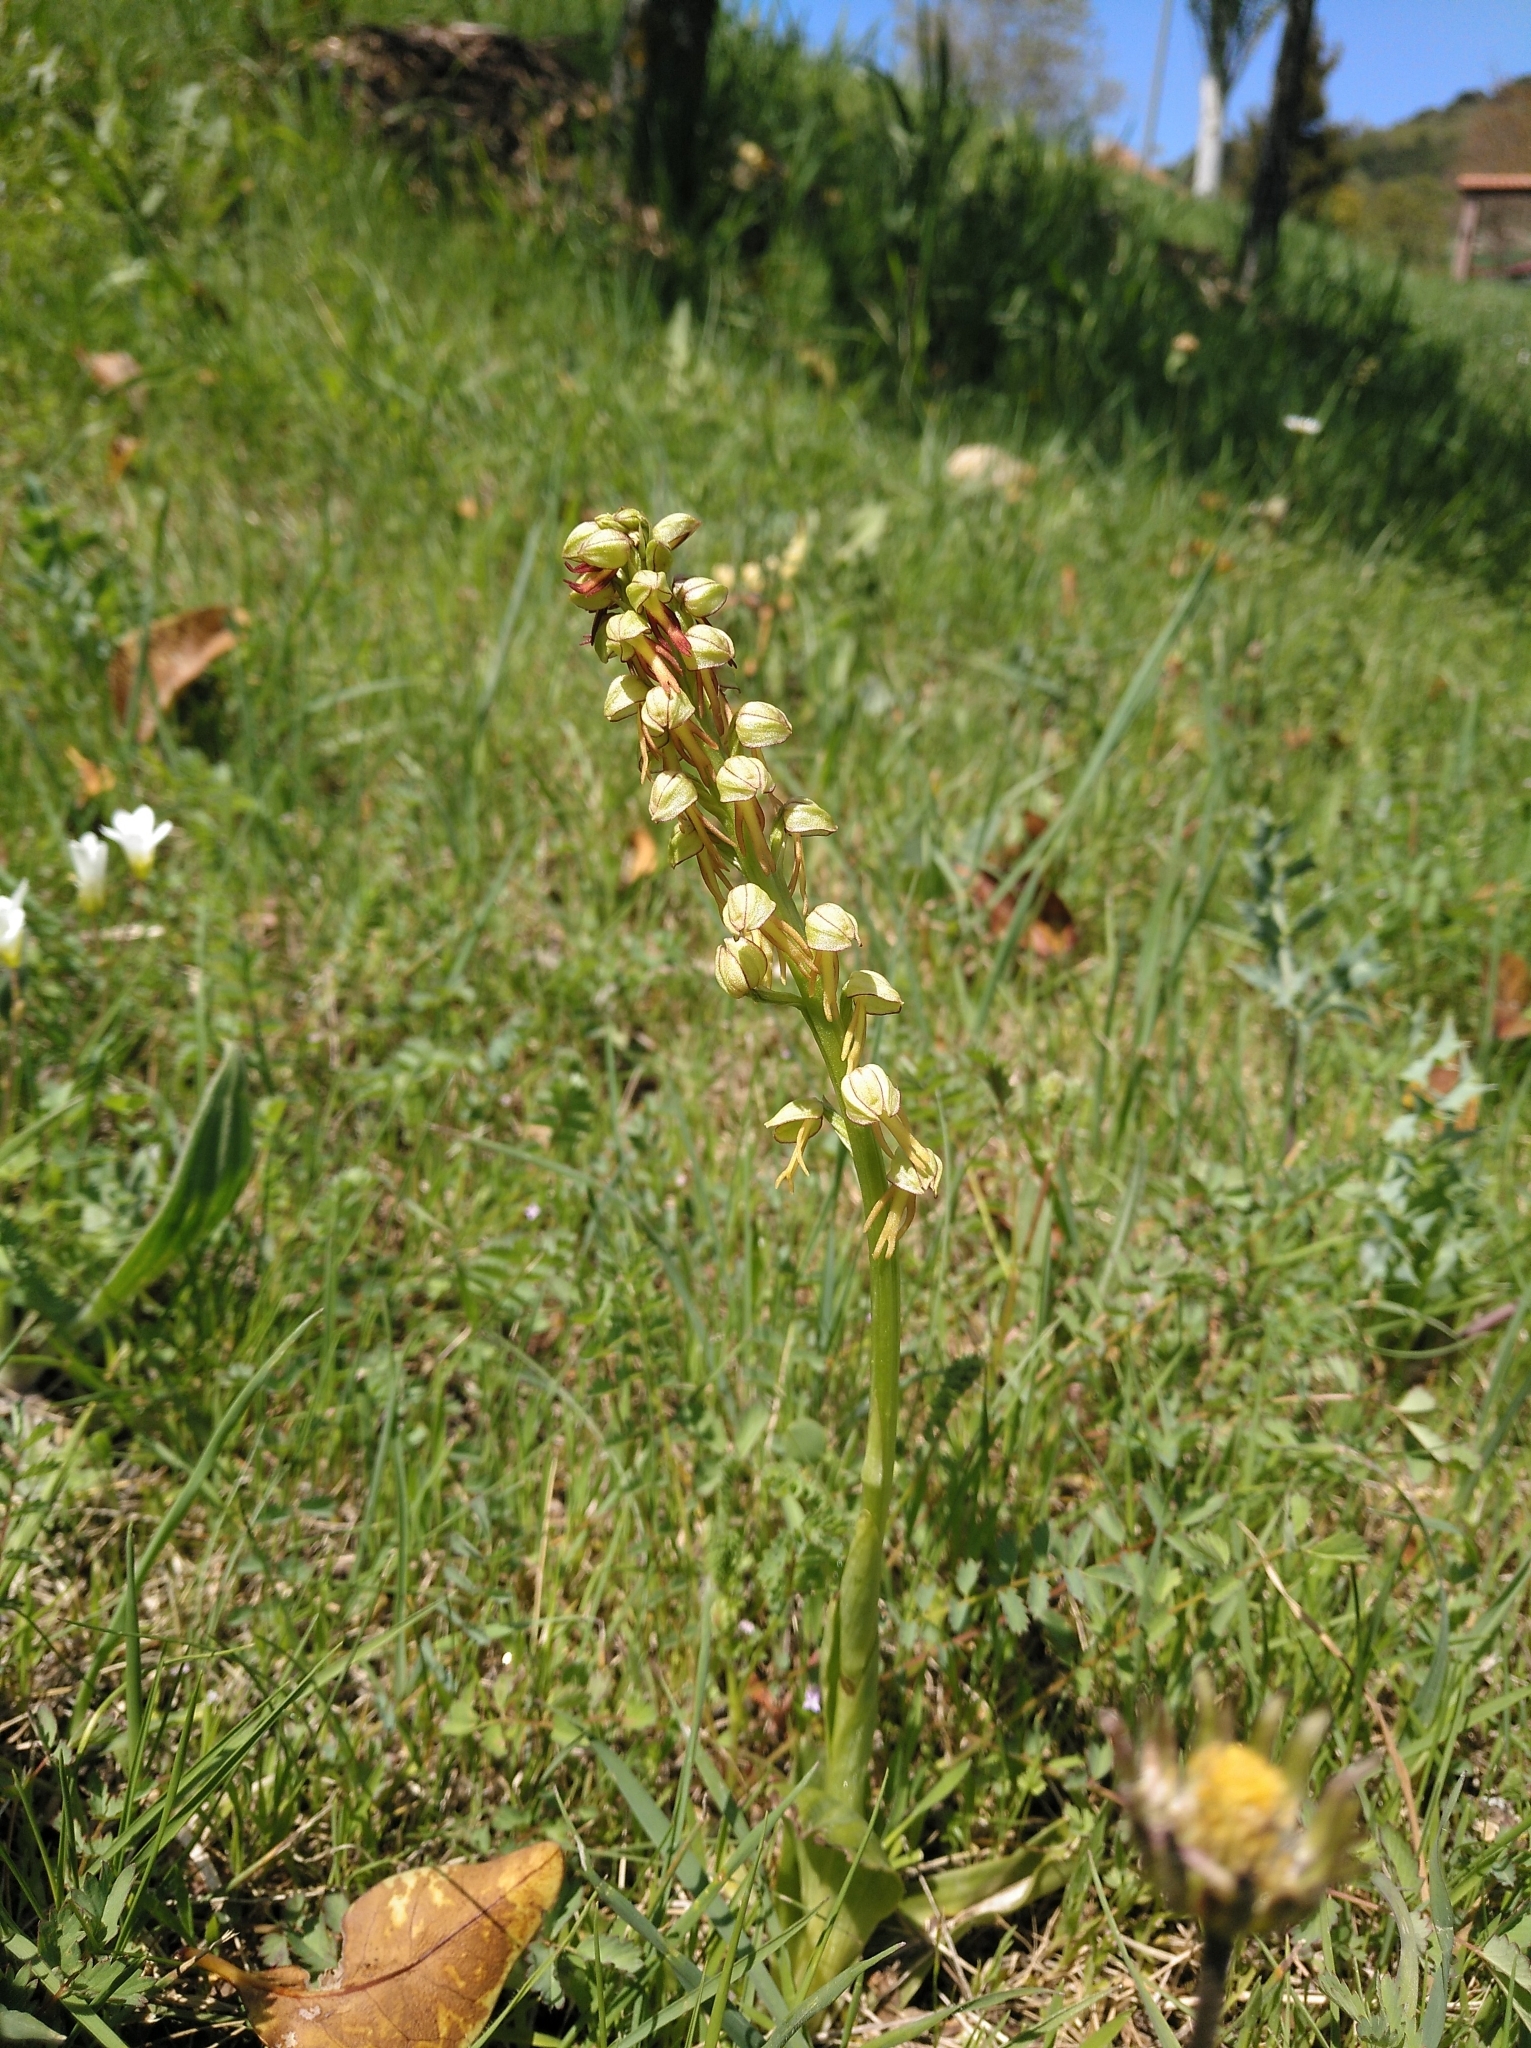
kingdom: Plantae
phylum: Tracheophyta
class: Liliopsida
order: Asparagales
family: Orchidaceae
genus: Orchis
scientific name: Orchis anthropophora
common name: Man orchid
